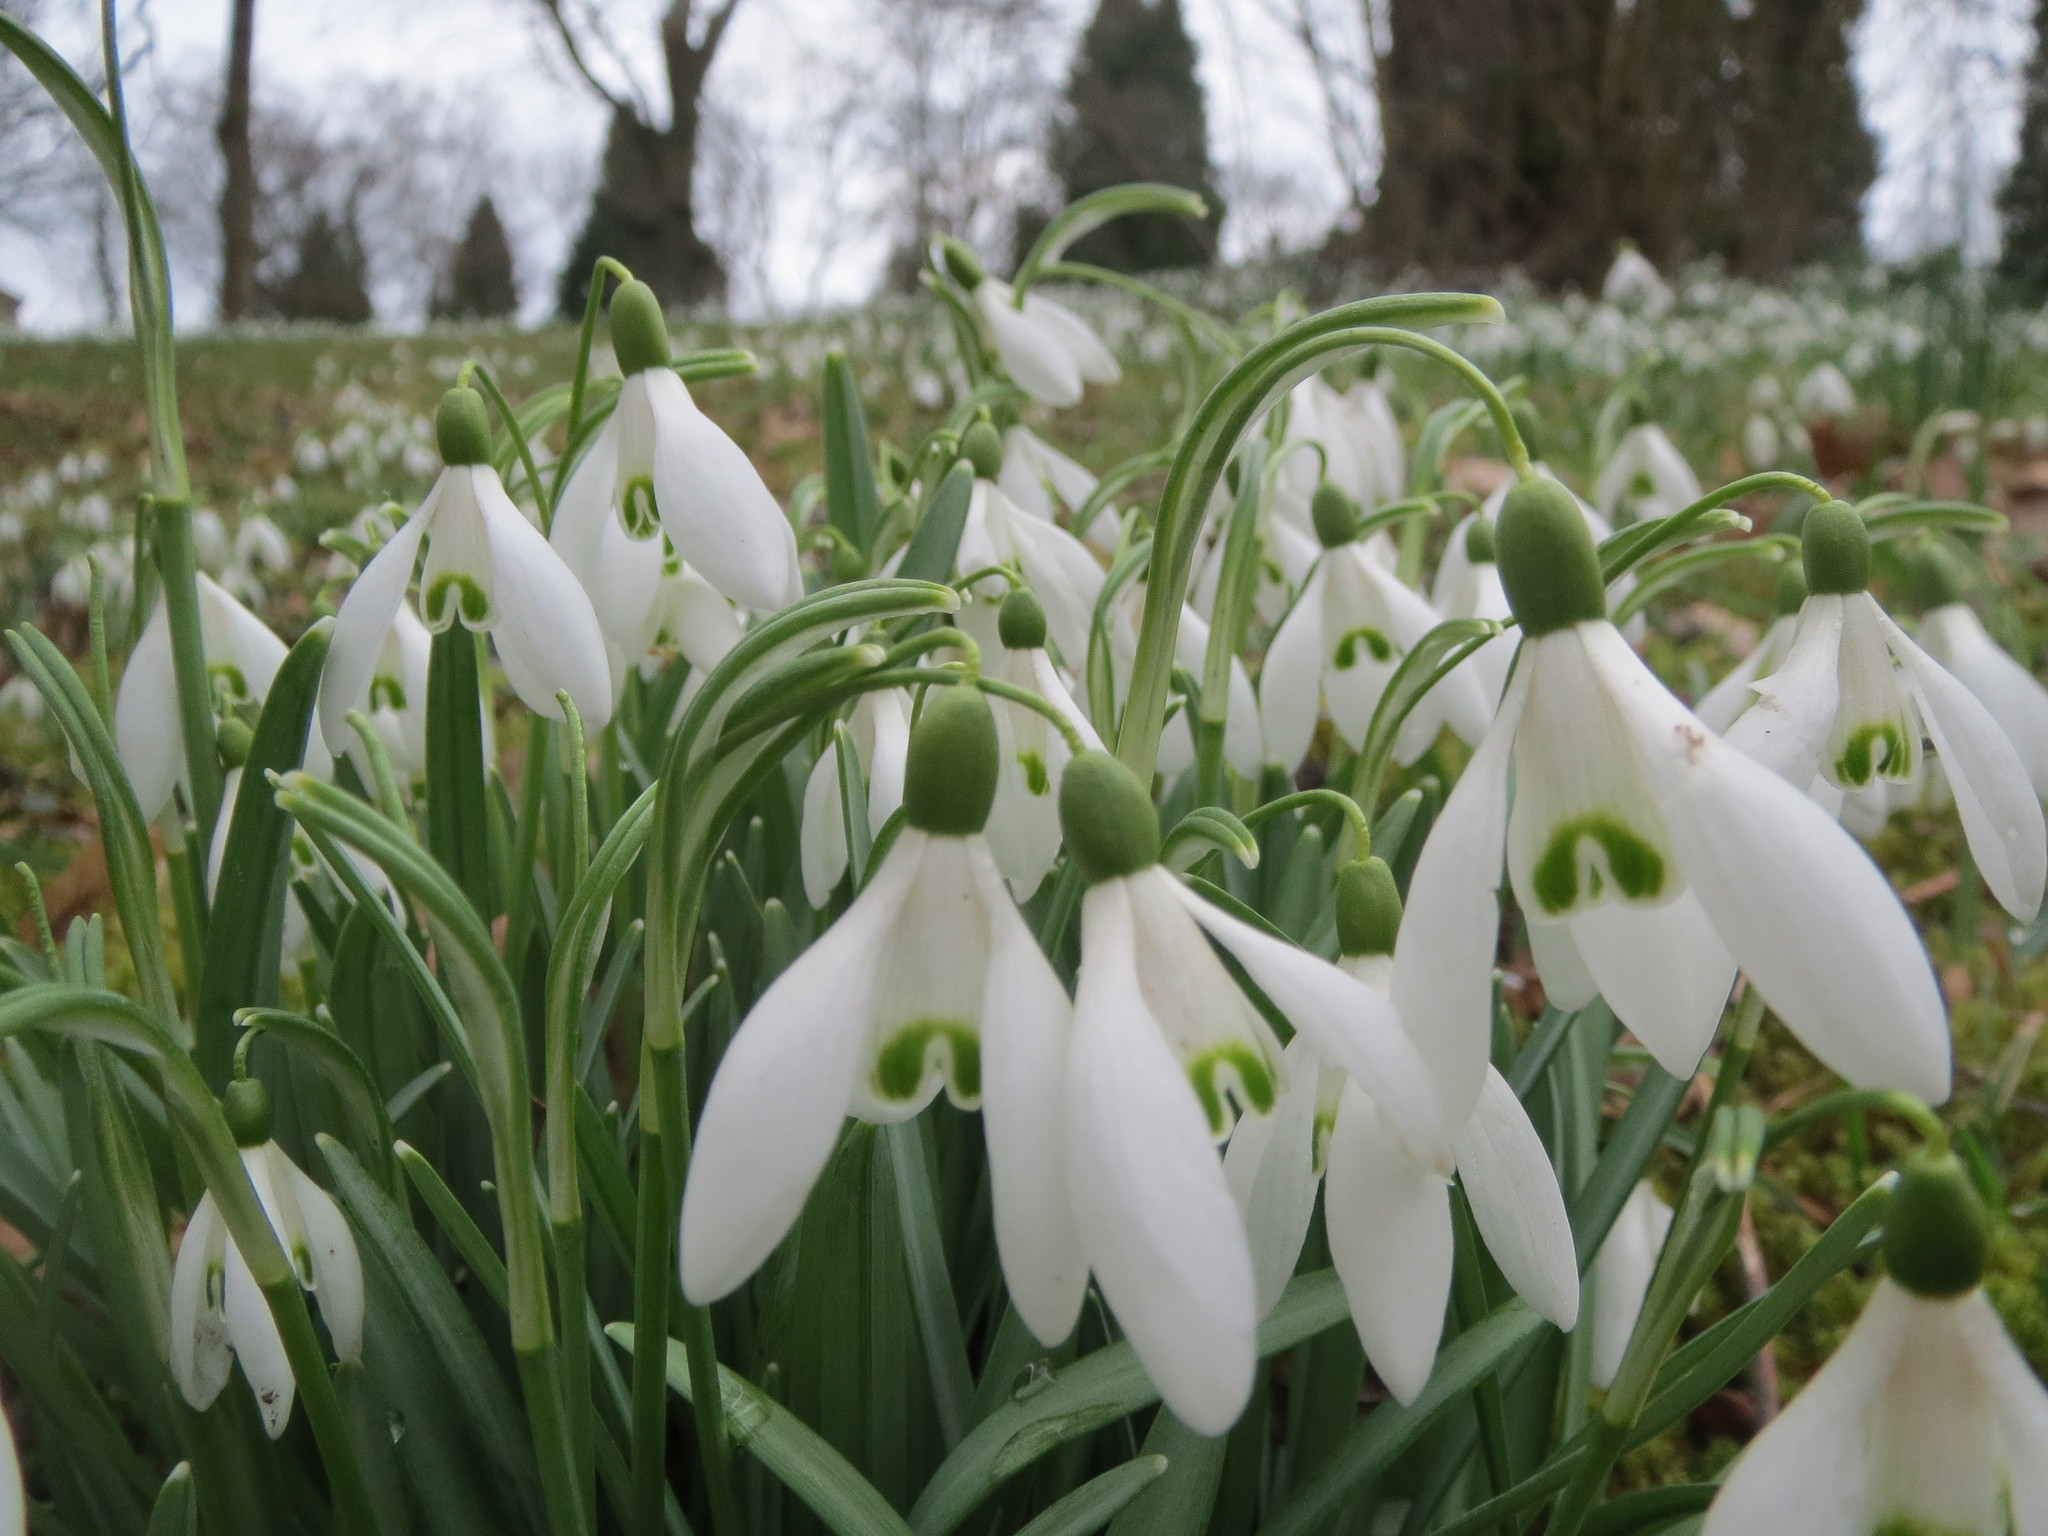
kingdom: Plantae
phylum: Tracheophyta
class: Liliopsida
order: Asparagales
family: Amaryllidaceae
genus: Galanthus
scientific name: Galanthus nivalis
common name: Snowdrop
